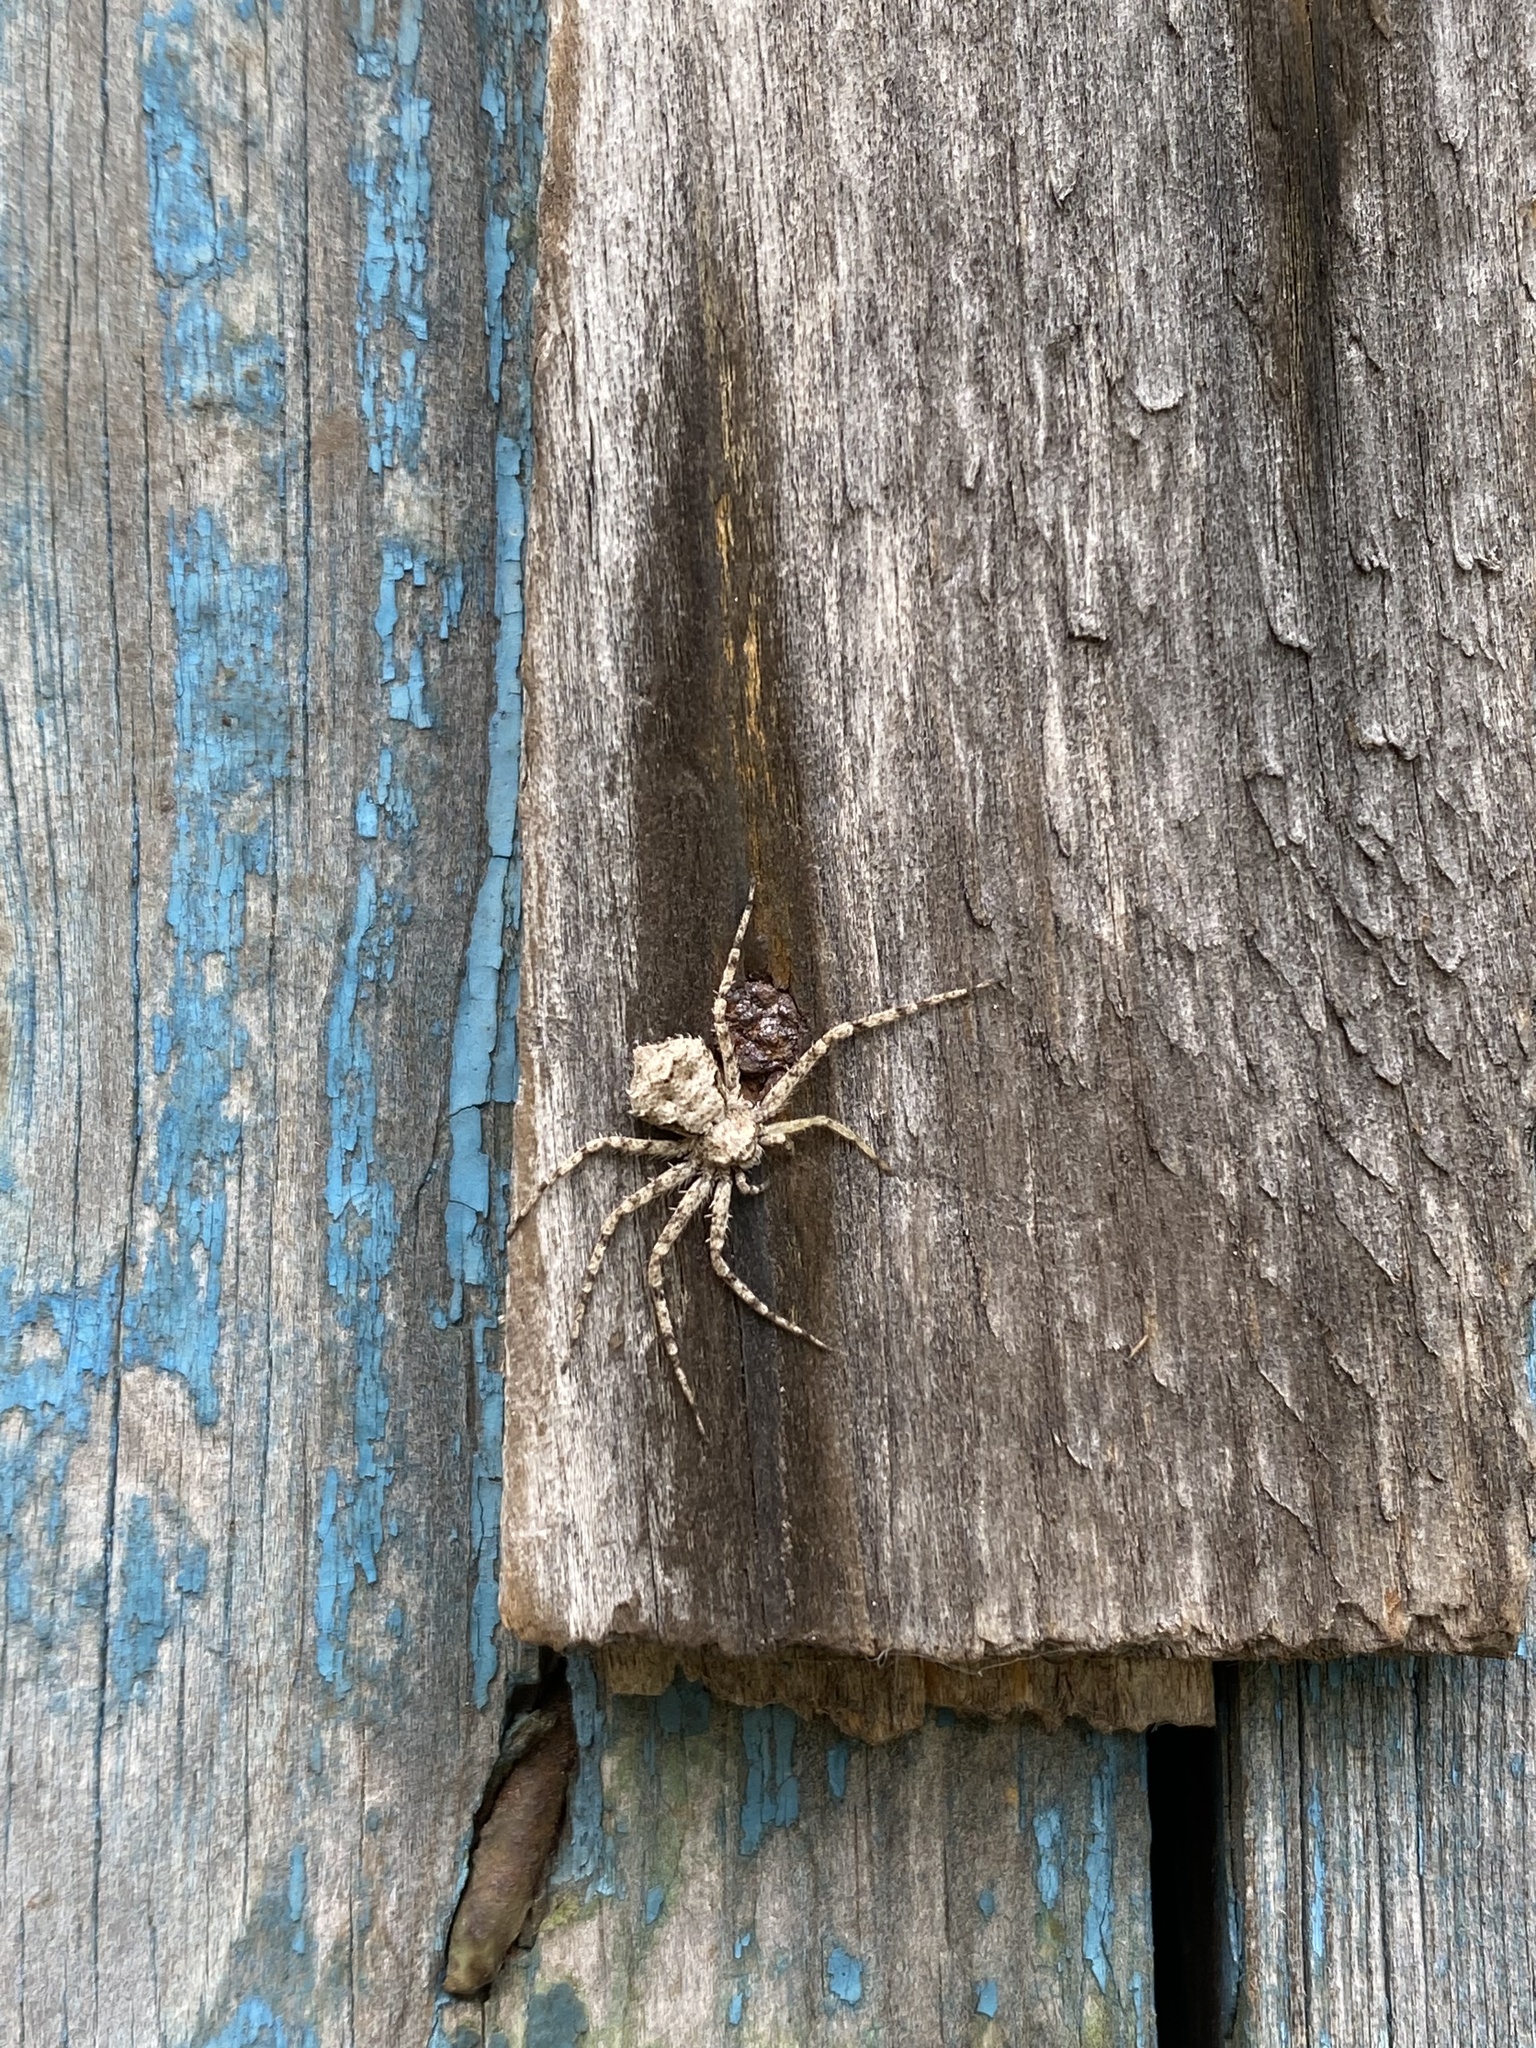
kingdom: Animalia
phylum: Arthropoda
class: Arachnida
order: Araneae
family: Philodromidae
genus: Philodromus
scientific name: Philodromus poecilus
